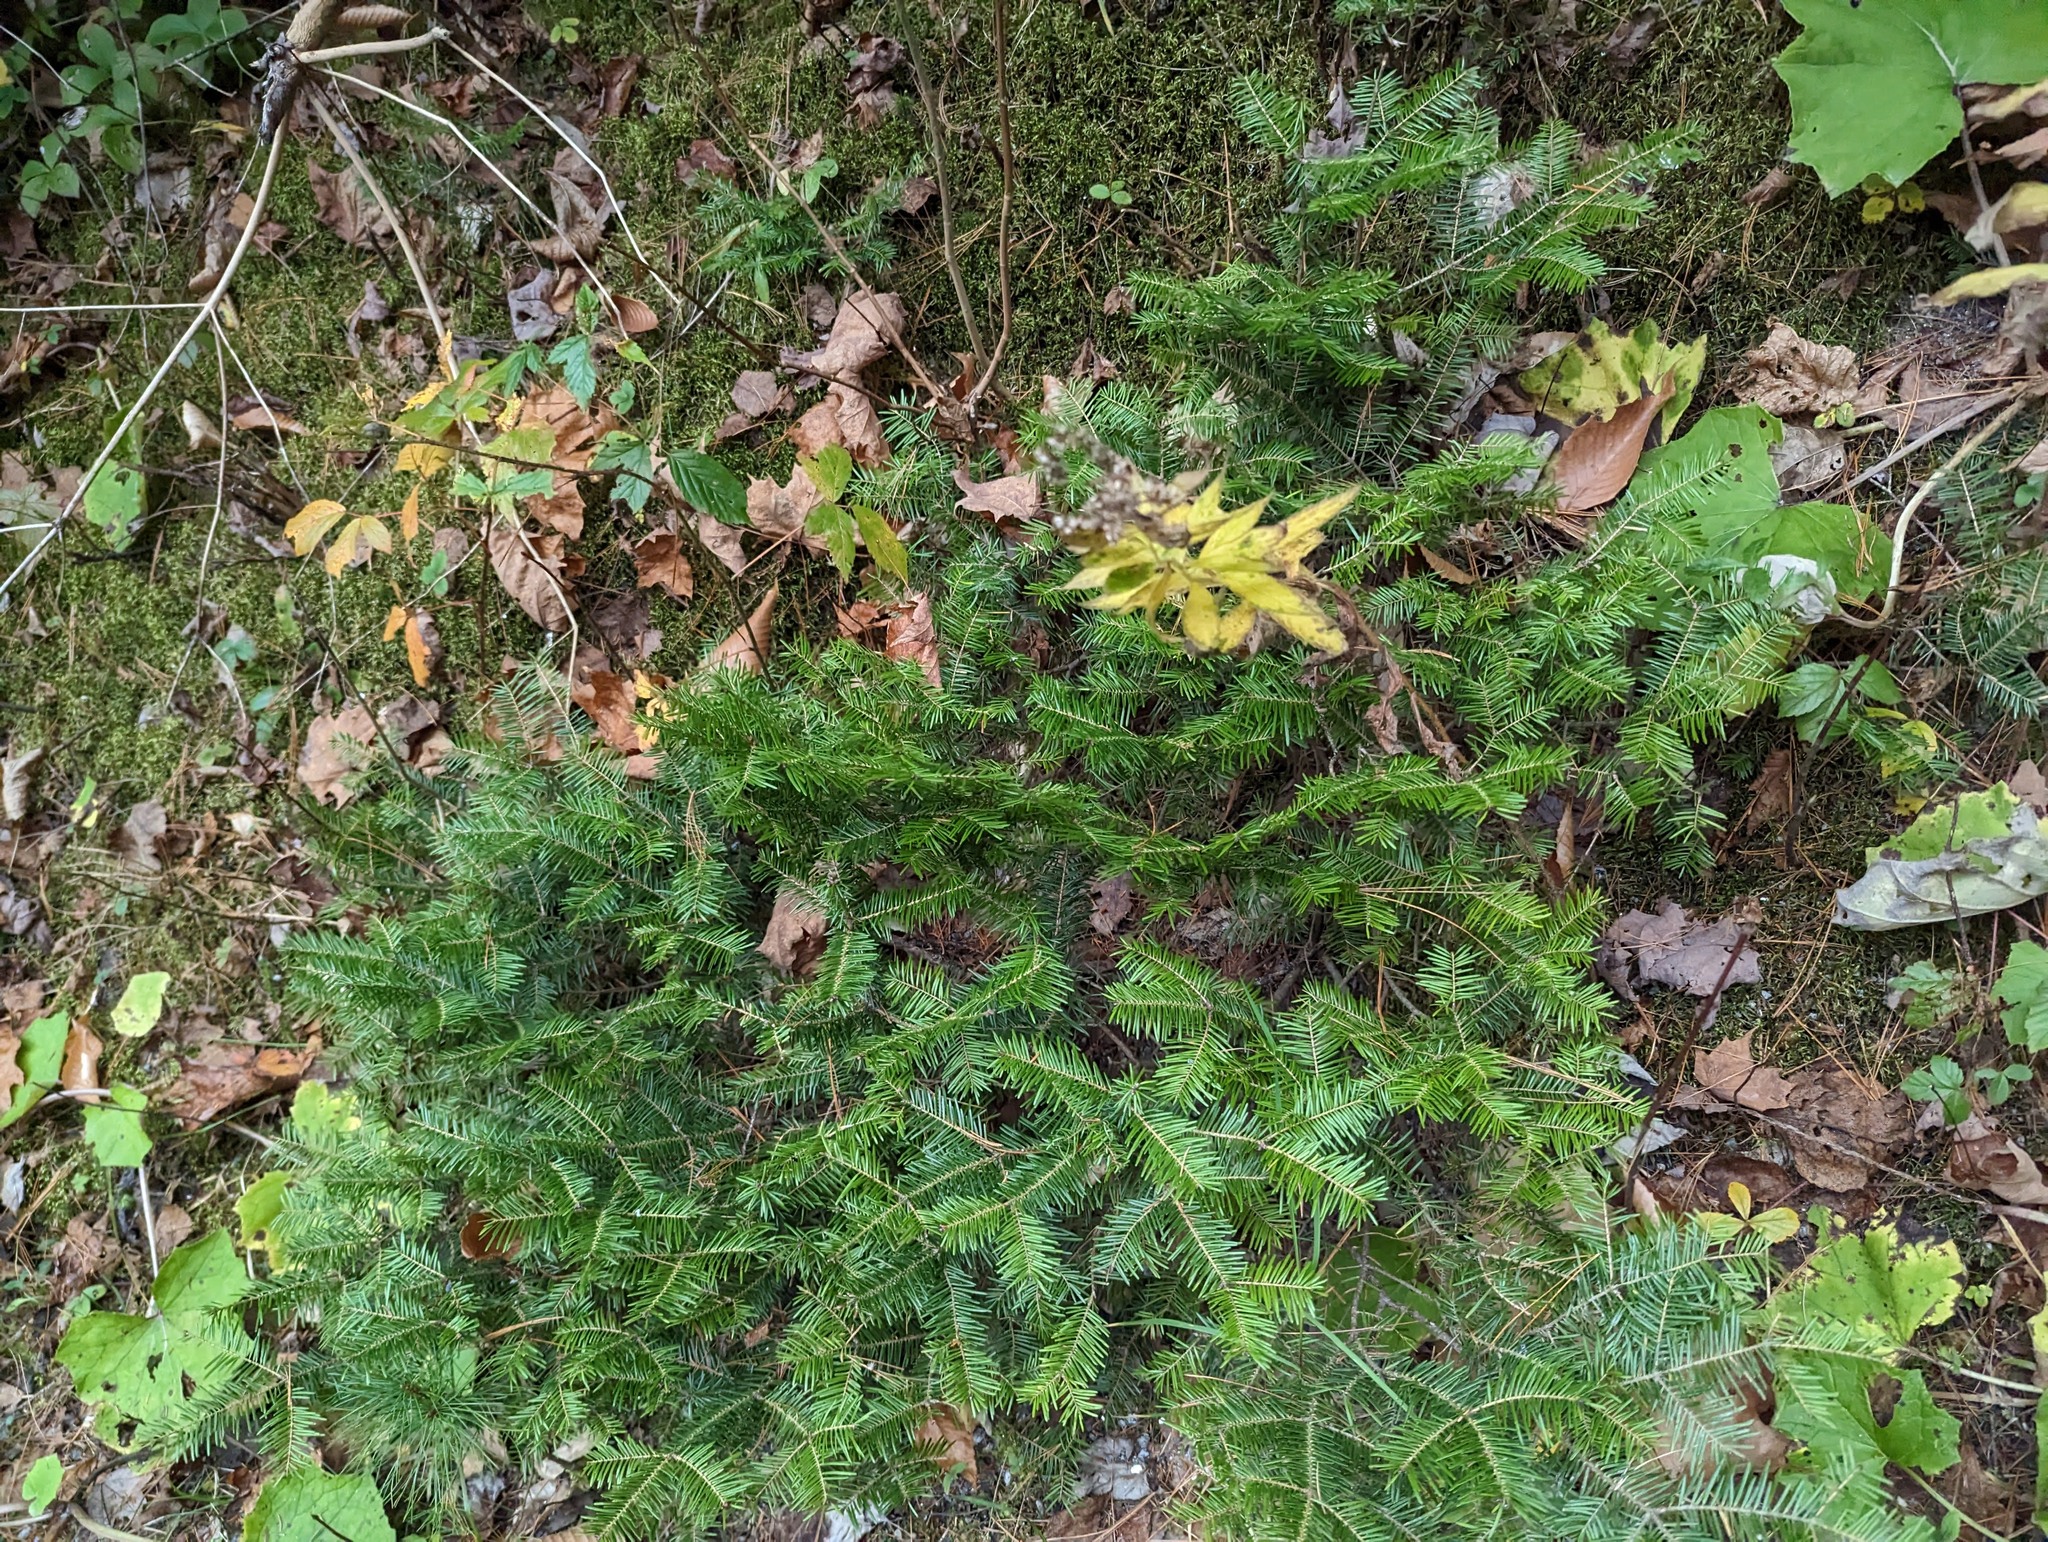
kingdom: Plantae
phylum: Tracheophyta
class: Pinopsida
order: Pinales
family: Pinaceae
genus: Abies
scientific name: Abies balsamea
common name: Balsam fir
